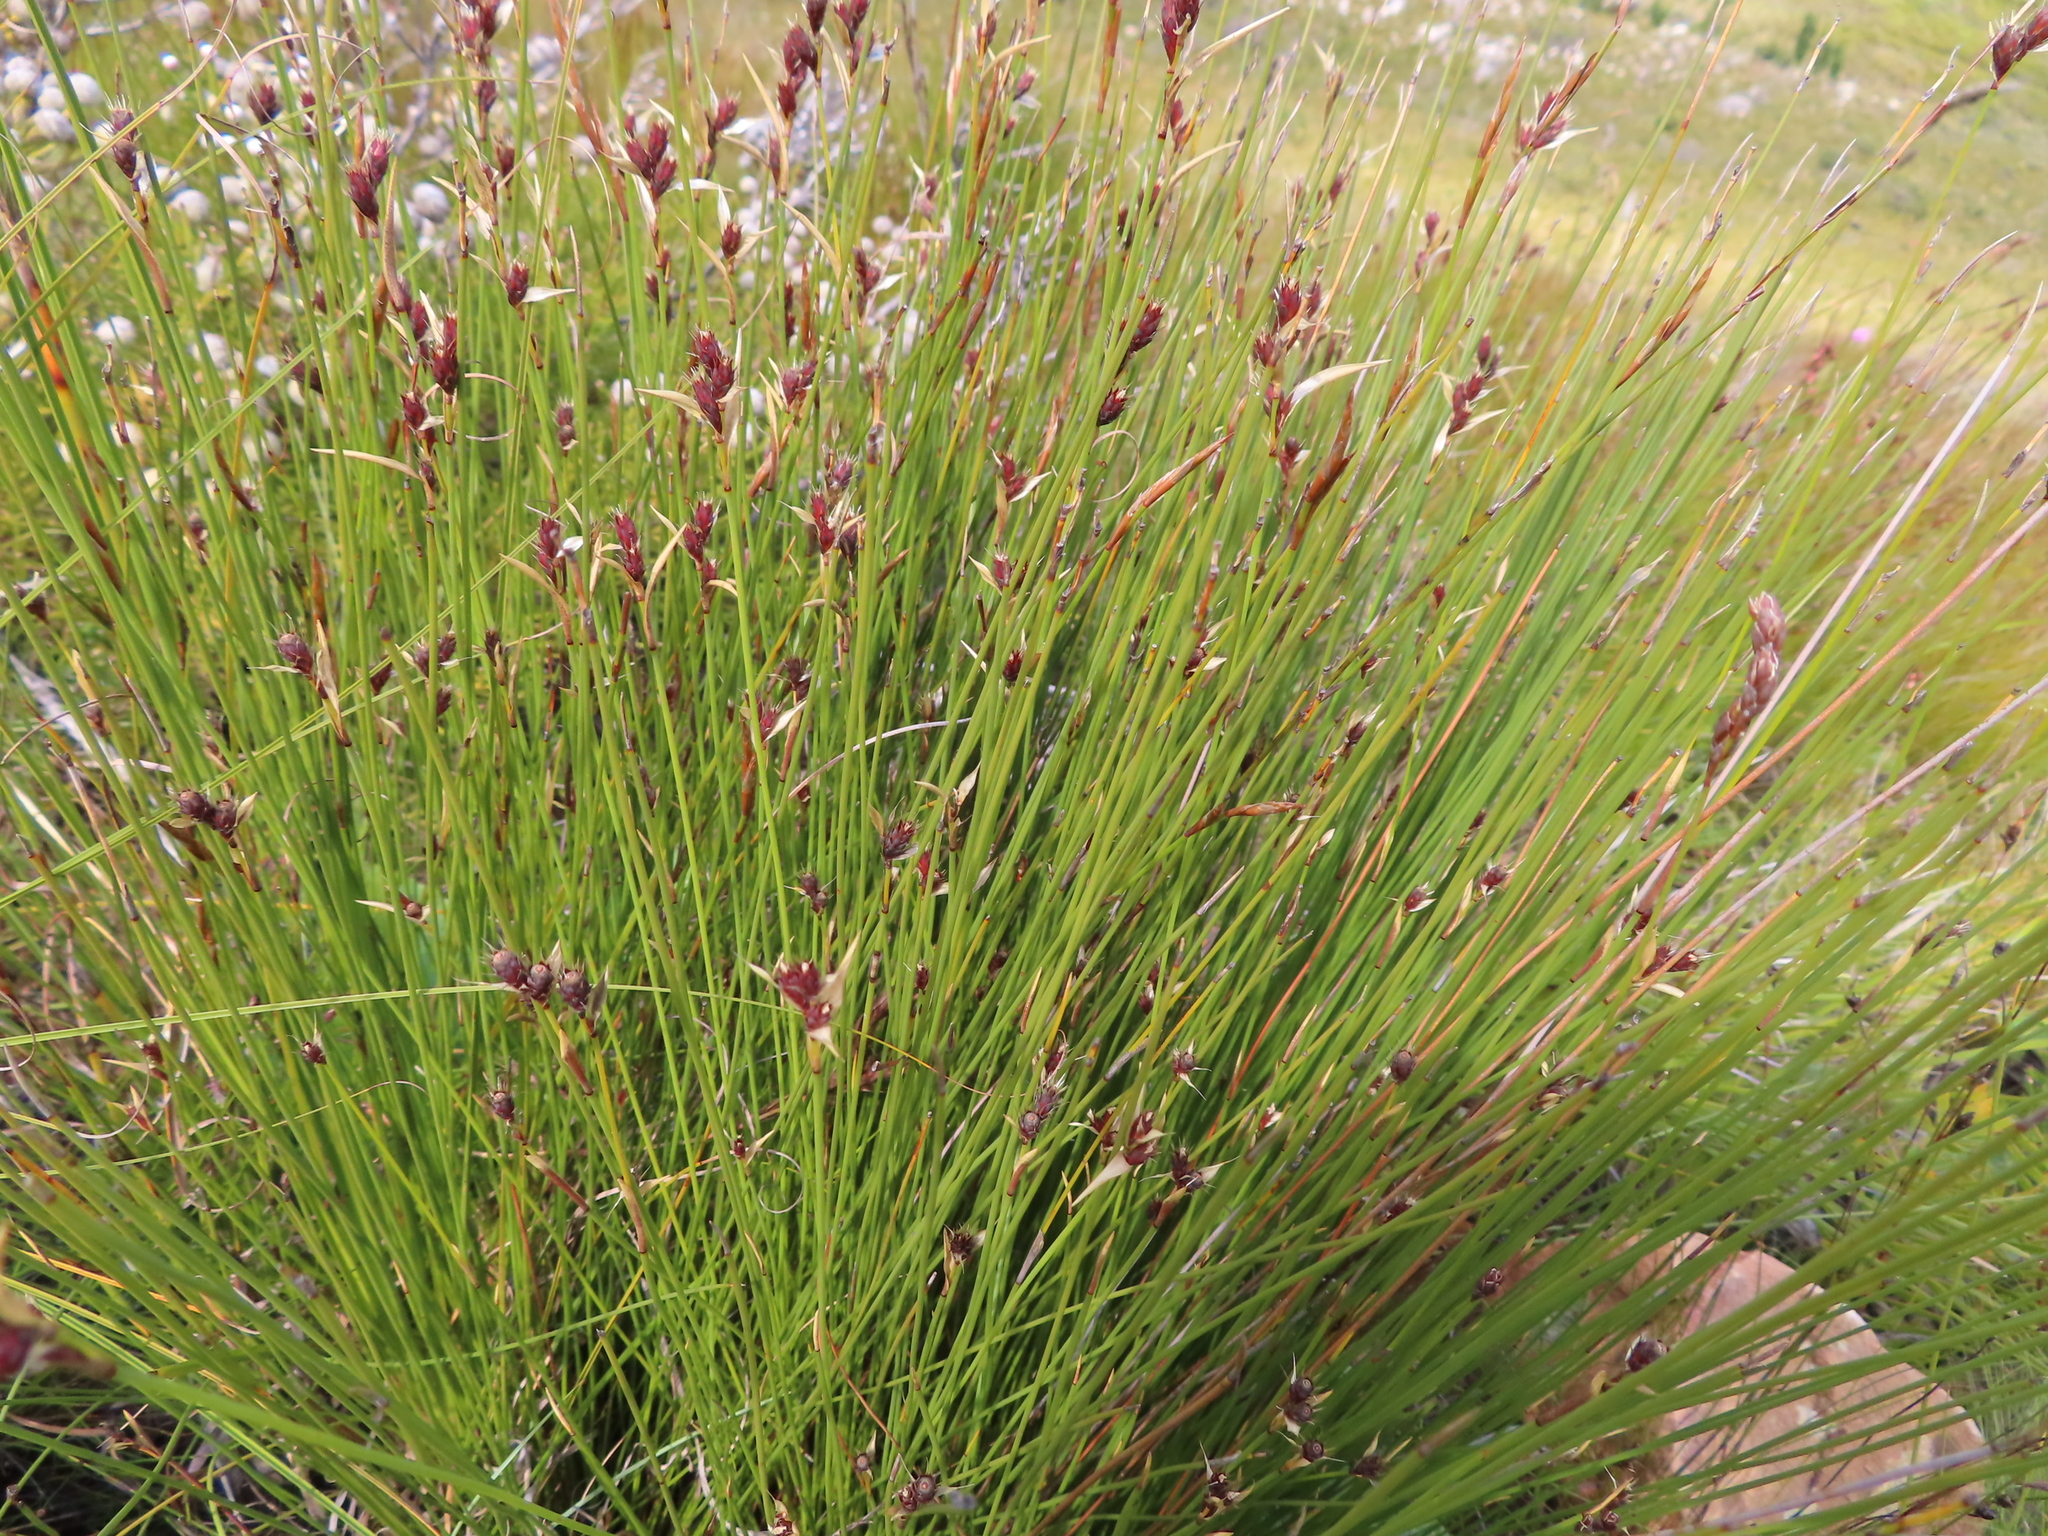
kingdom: Plantae
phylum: Tracheophyta
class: Liliopsida
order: Poales
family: Restionaceae
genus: Hypodiscus
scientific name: Hypodiscus aristatus
